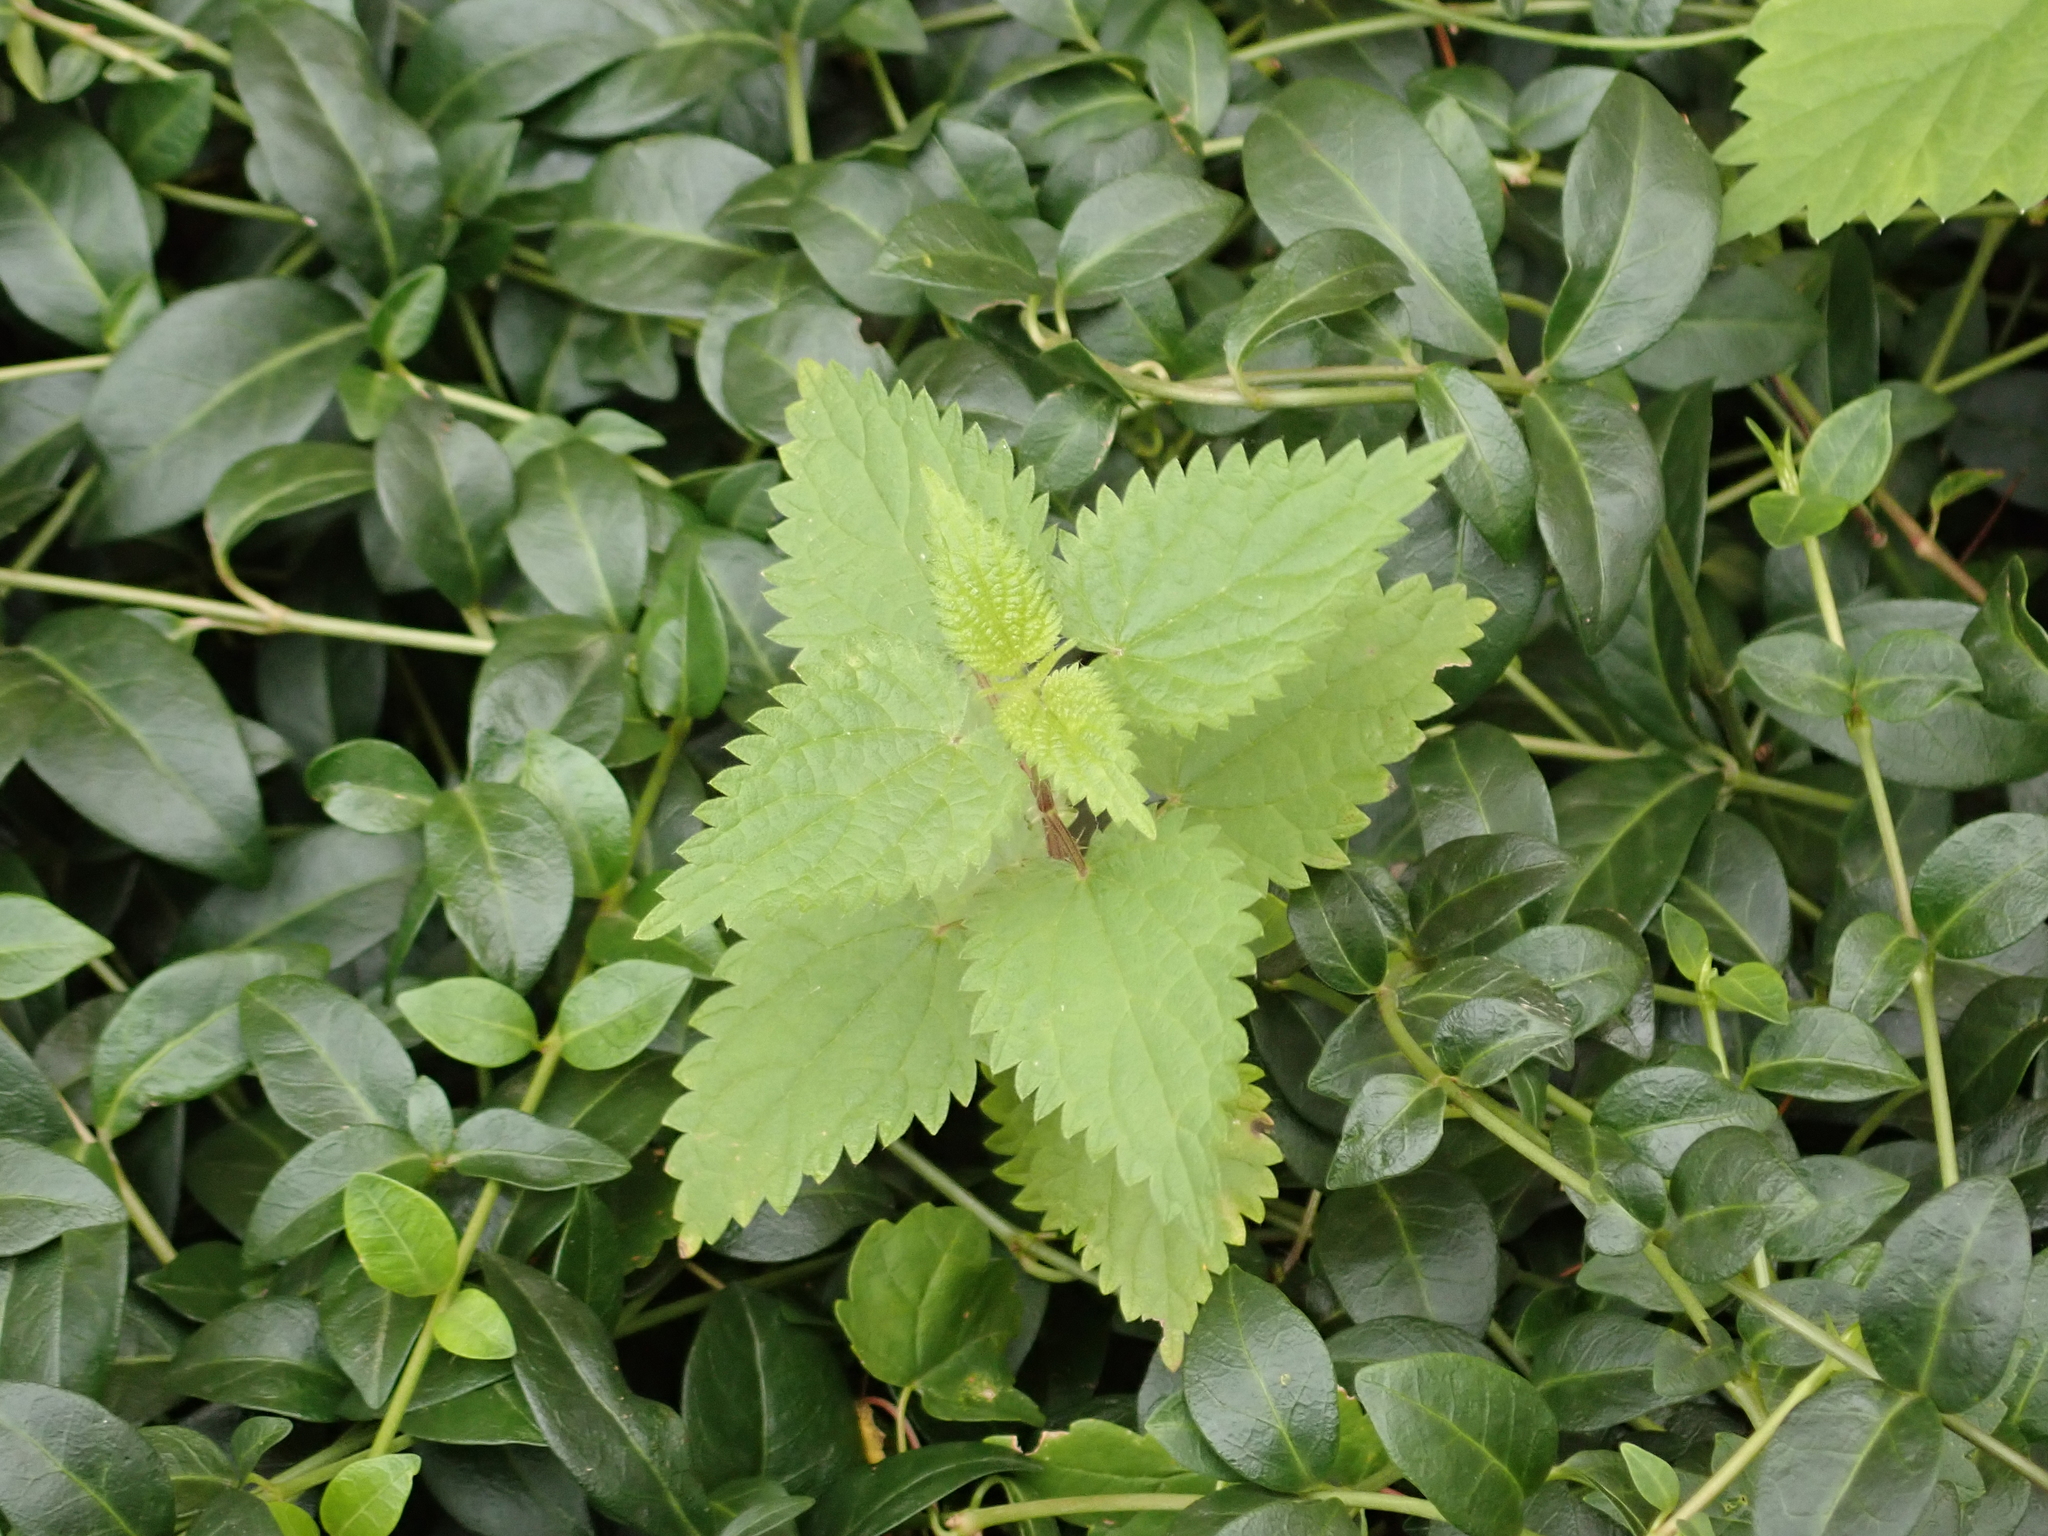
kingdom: Plantae
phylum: Tracheophyta
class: Magnoliopsida
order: Rosales
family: Urticaceae
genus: Urtica
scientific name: Urtica dioica
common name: Common nettle
